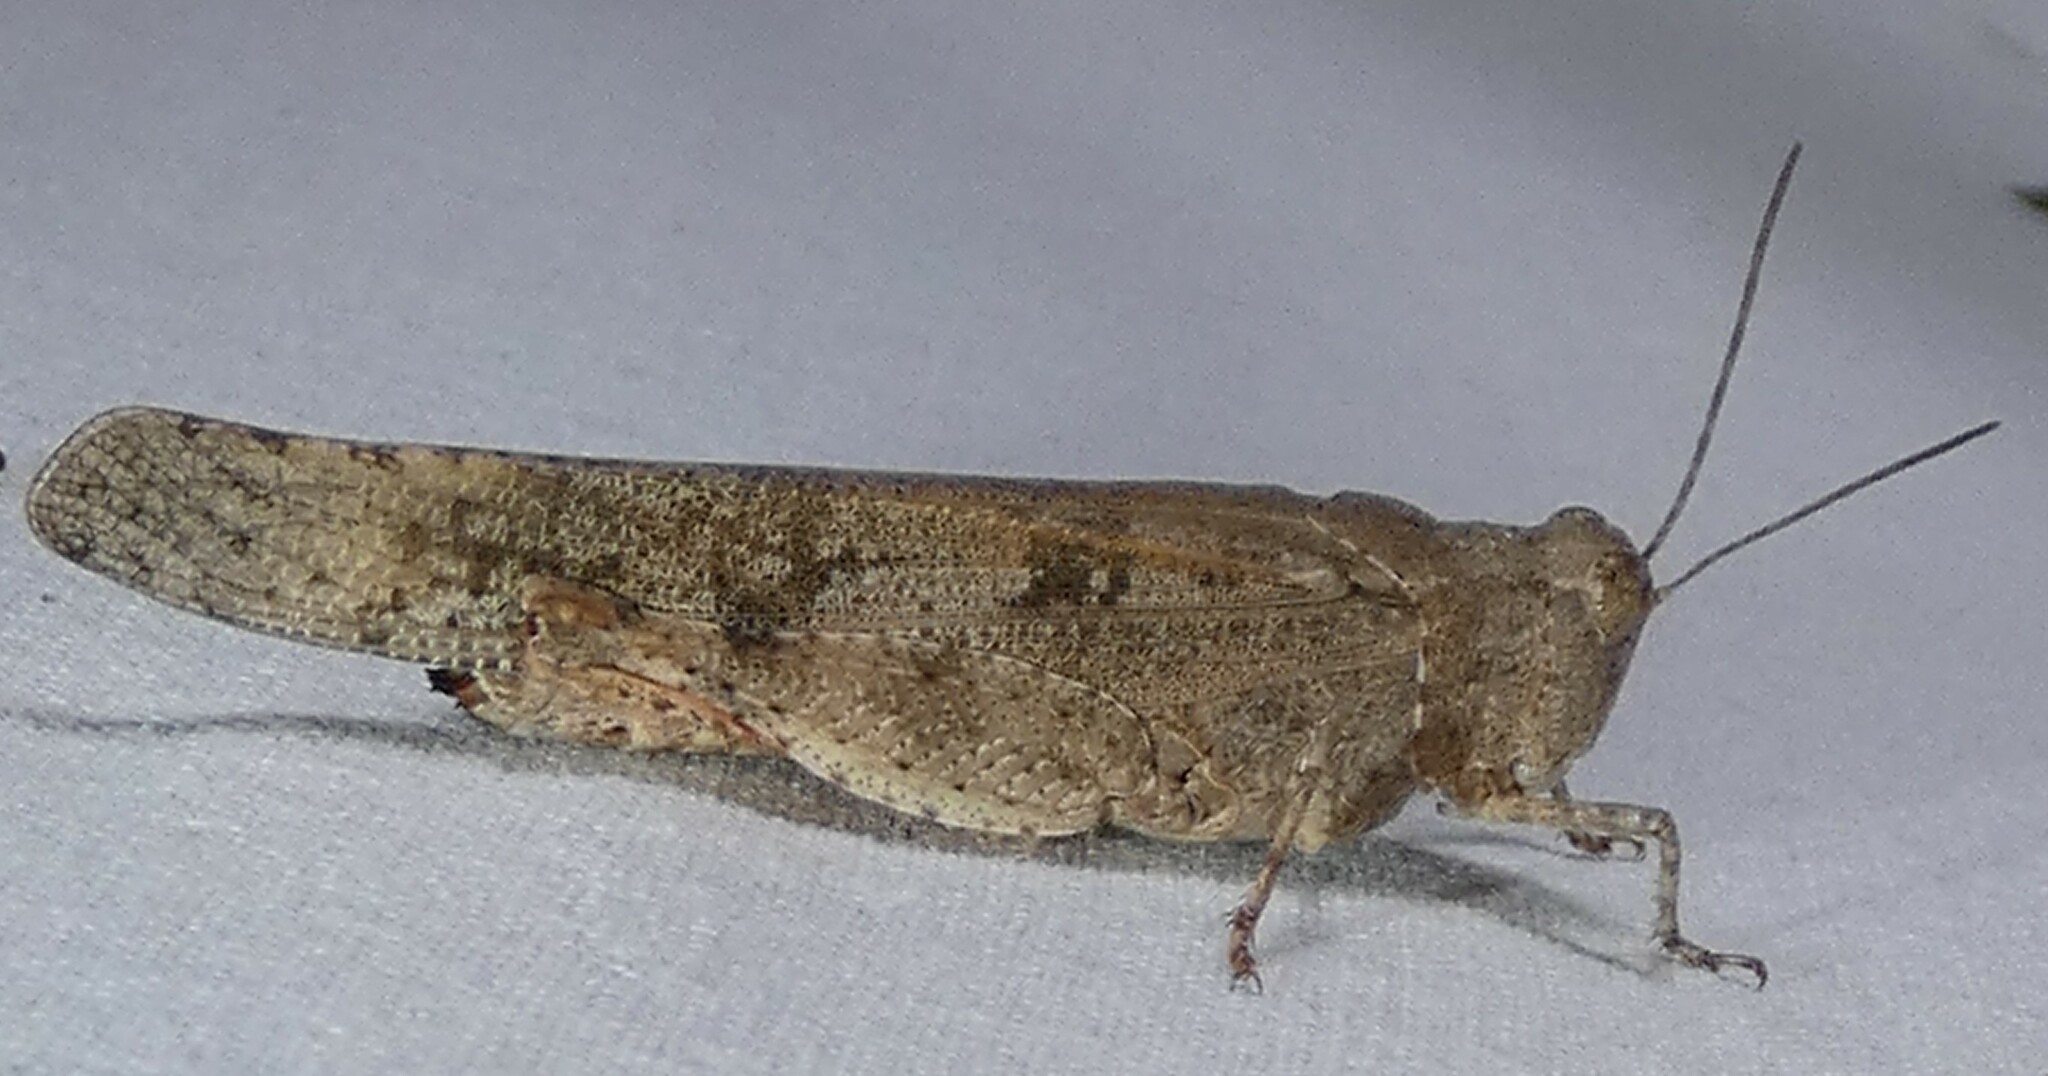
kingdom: Animalia
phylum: Arthropoda
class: Insecta
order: Orthoptera
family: Acrididae
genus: Trimerotropis
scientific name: Trimerotropis maritima
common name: Seaside locust
